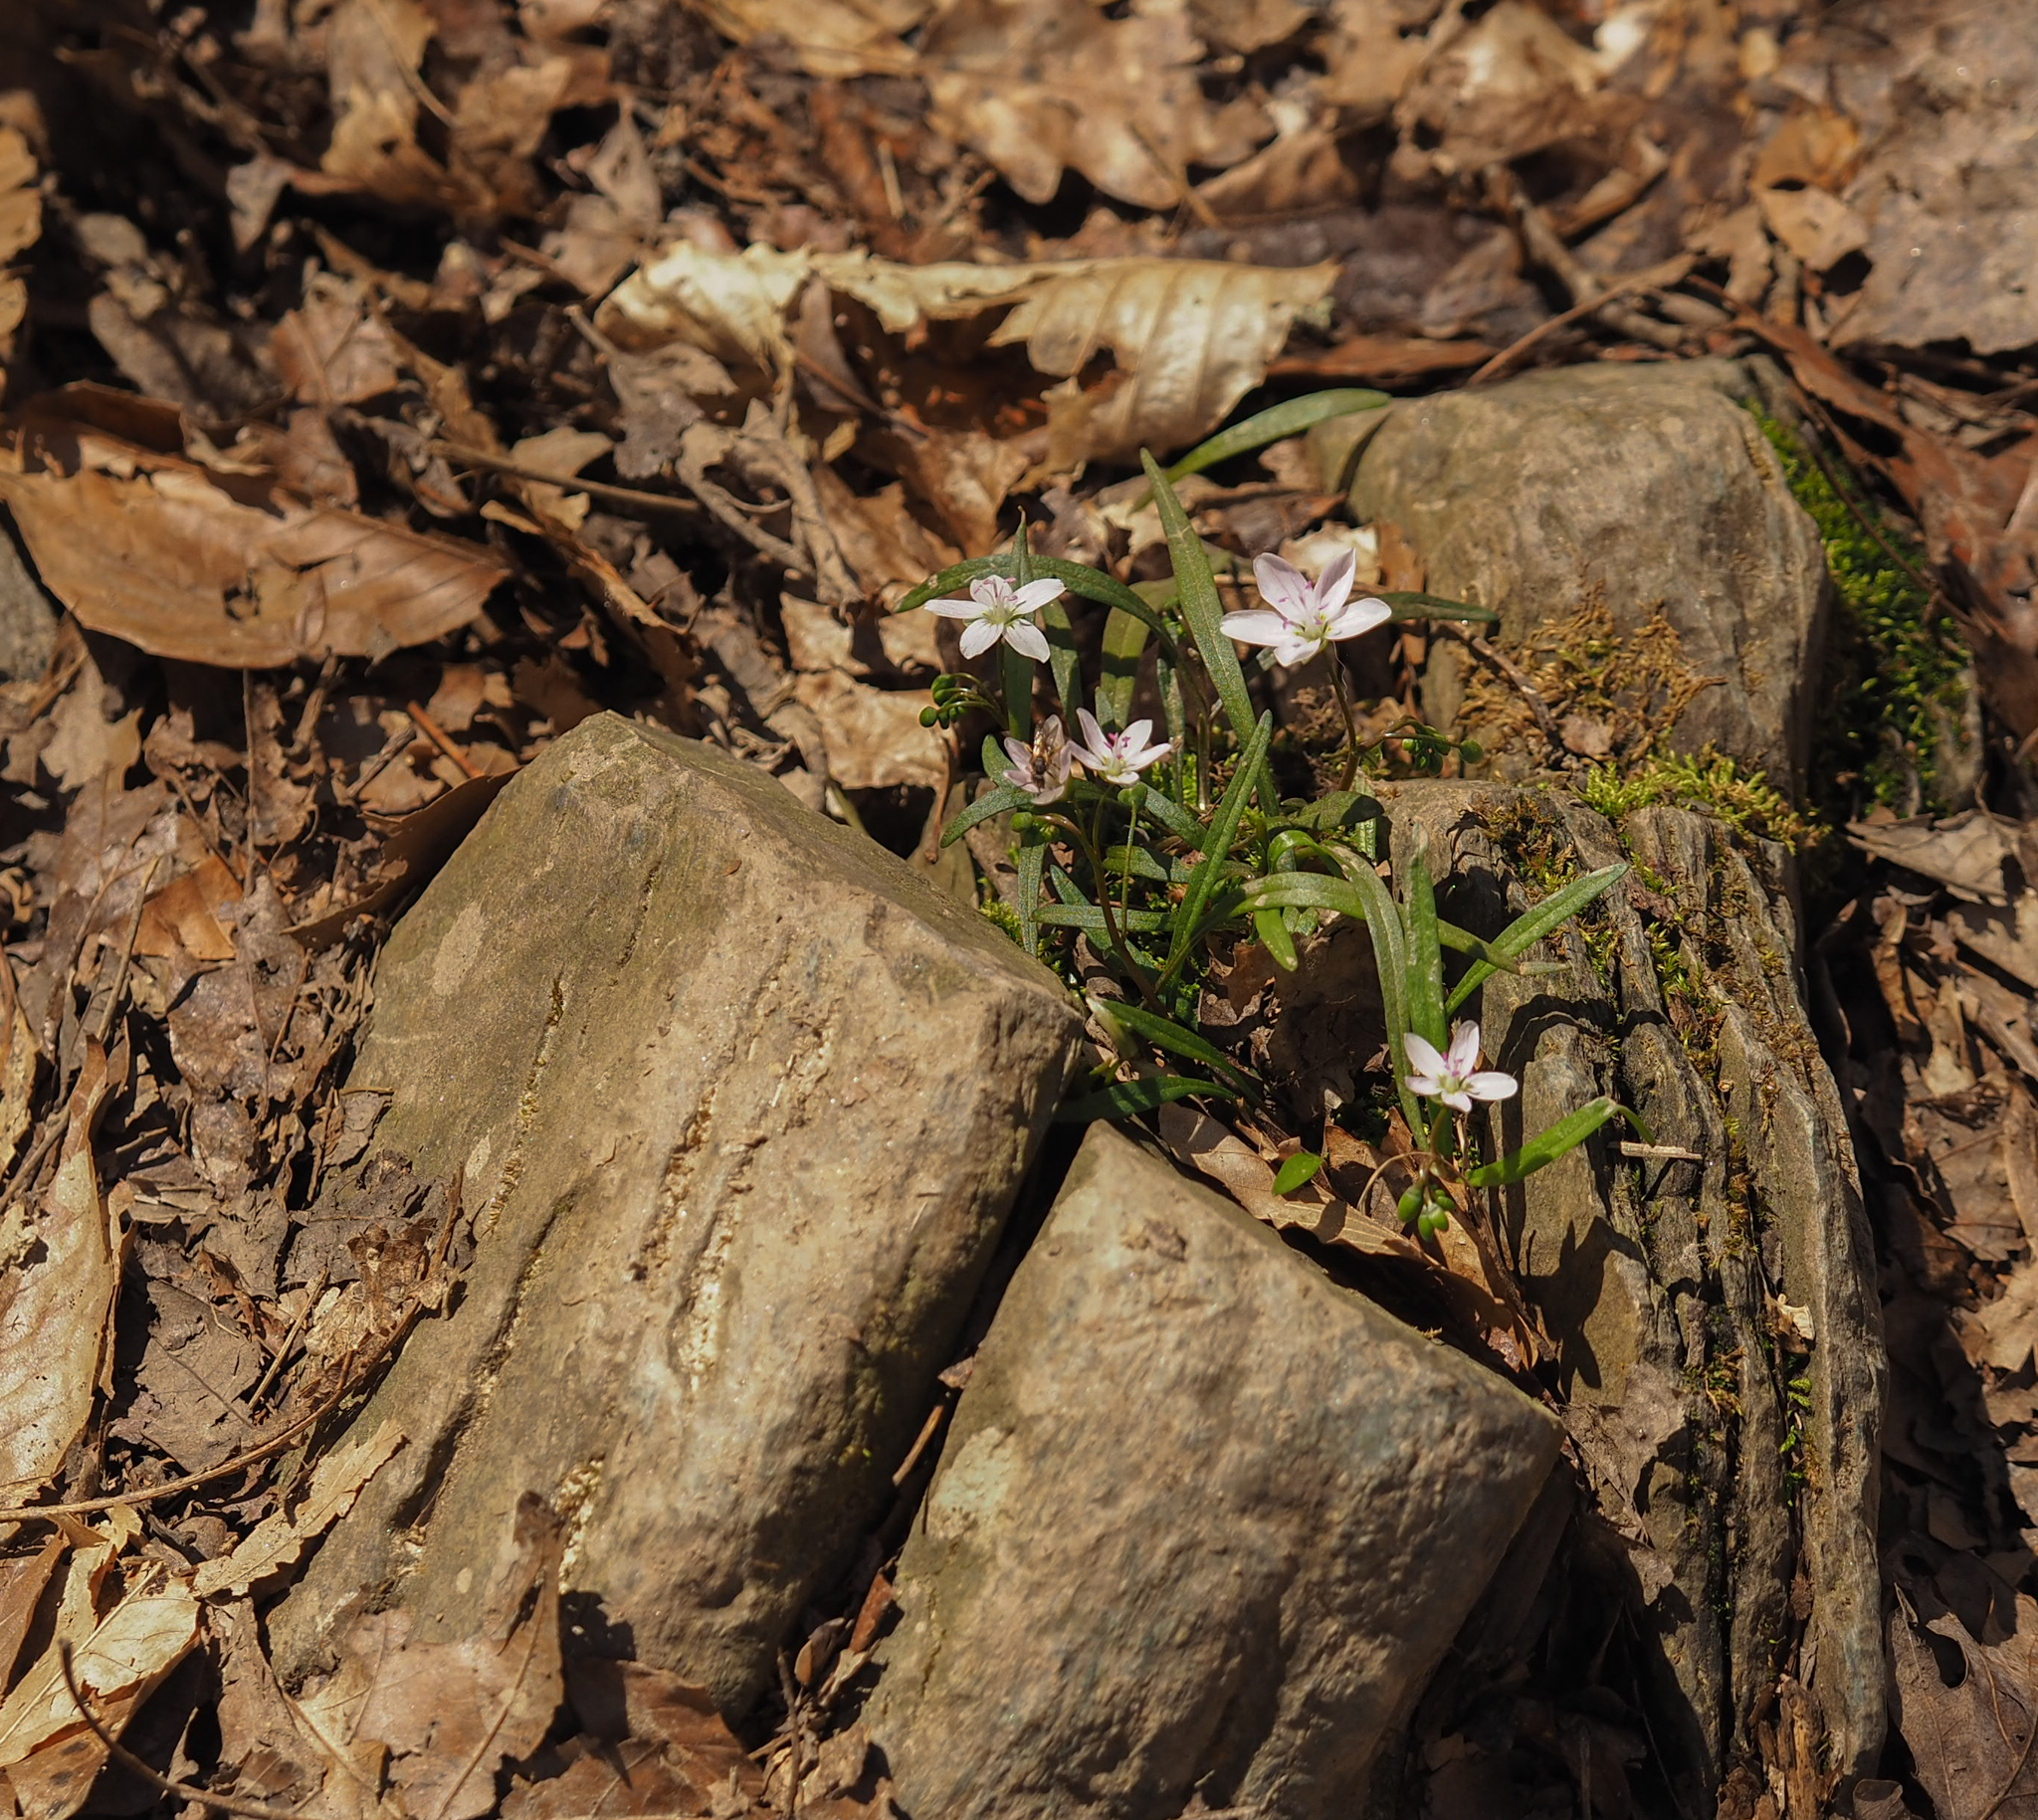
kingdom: Plantae
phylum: Tracheophyta
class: Magnoliopsida
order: Caryophyllales
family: Montiaceae
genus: Claytonia
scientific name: Claytonia virginica
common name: Virginia springbeauty
